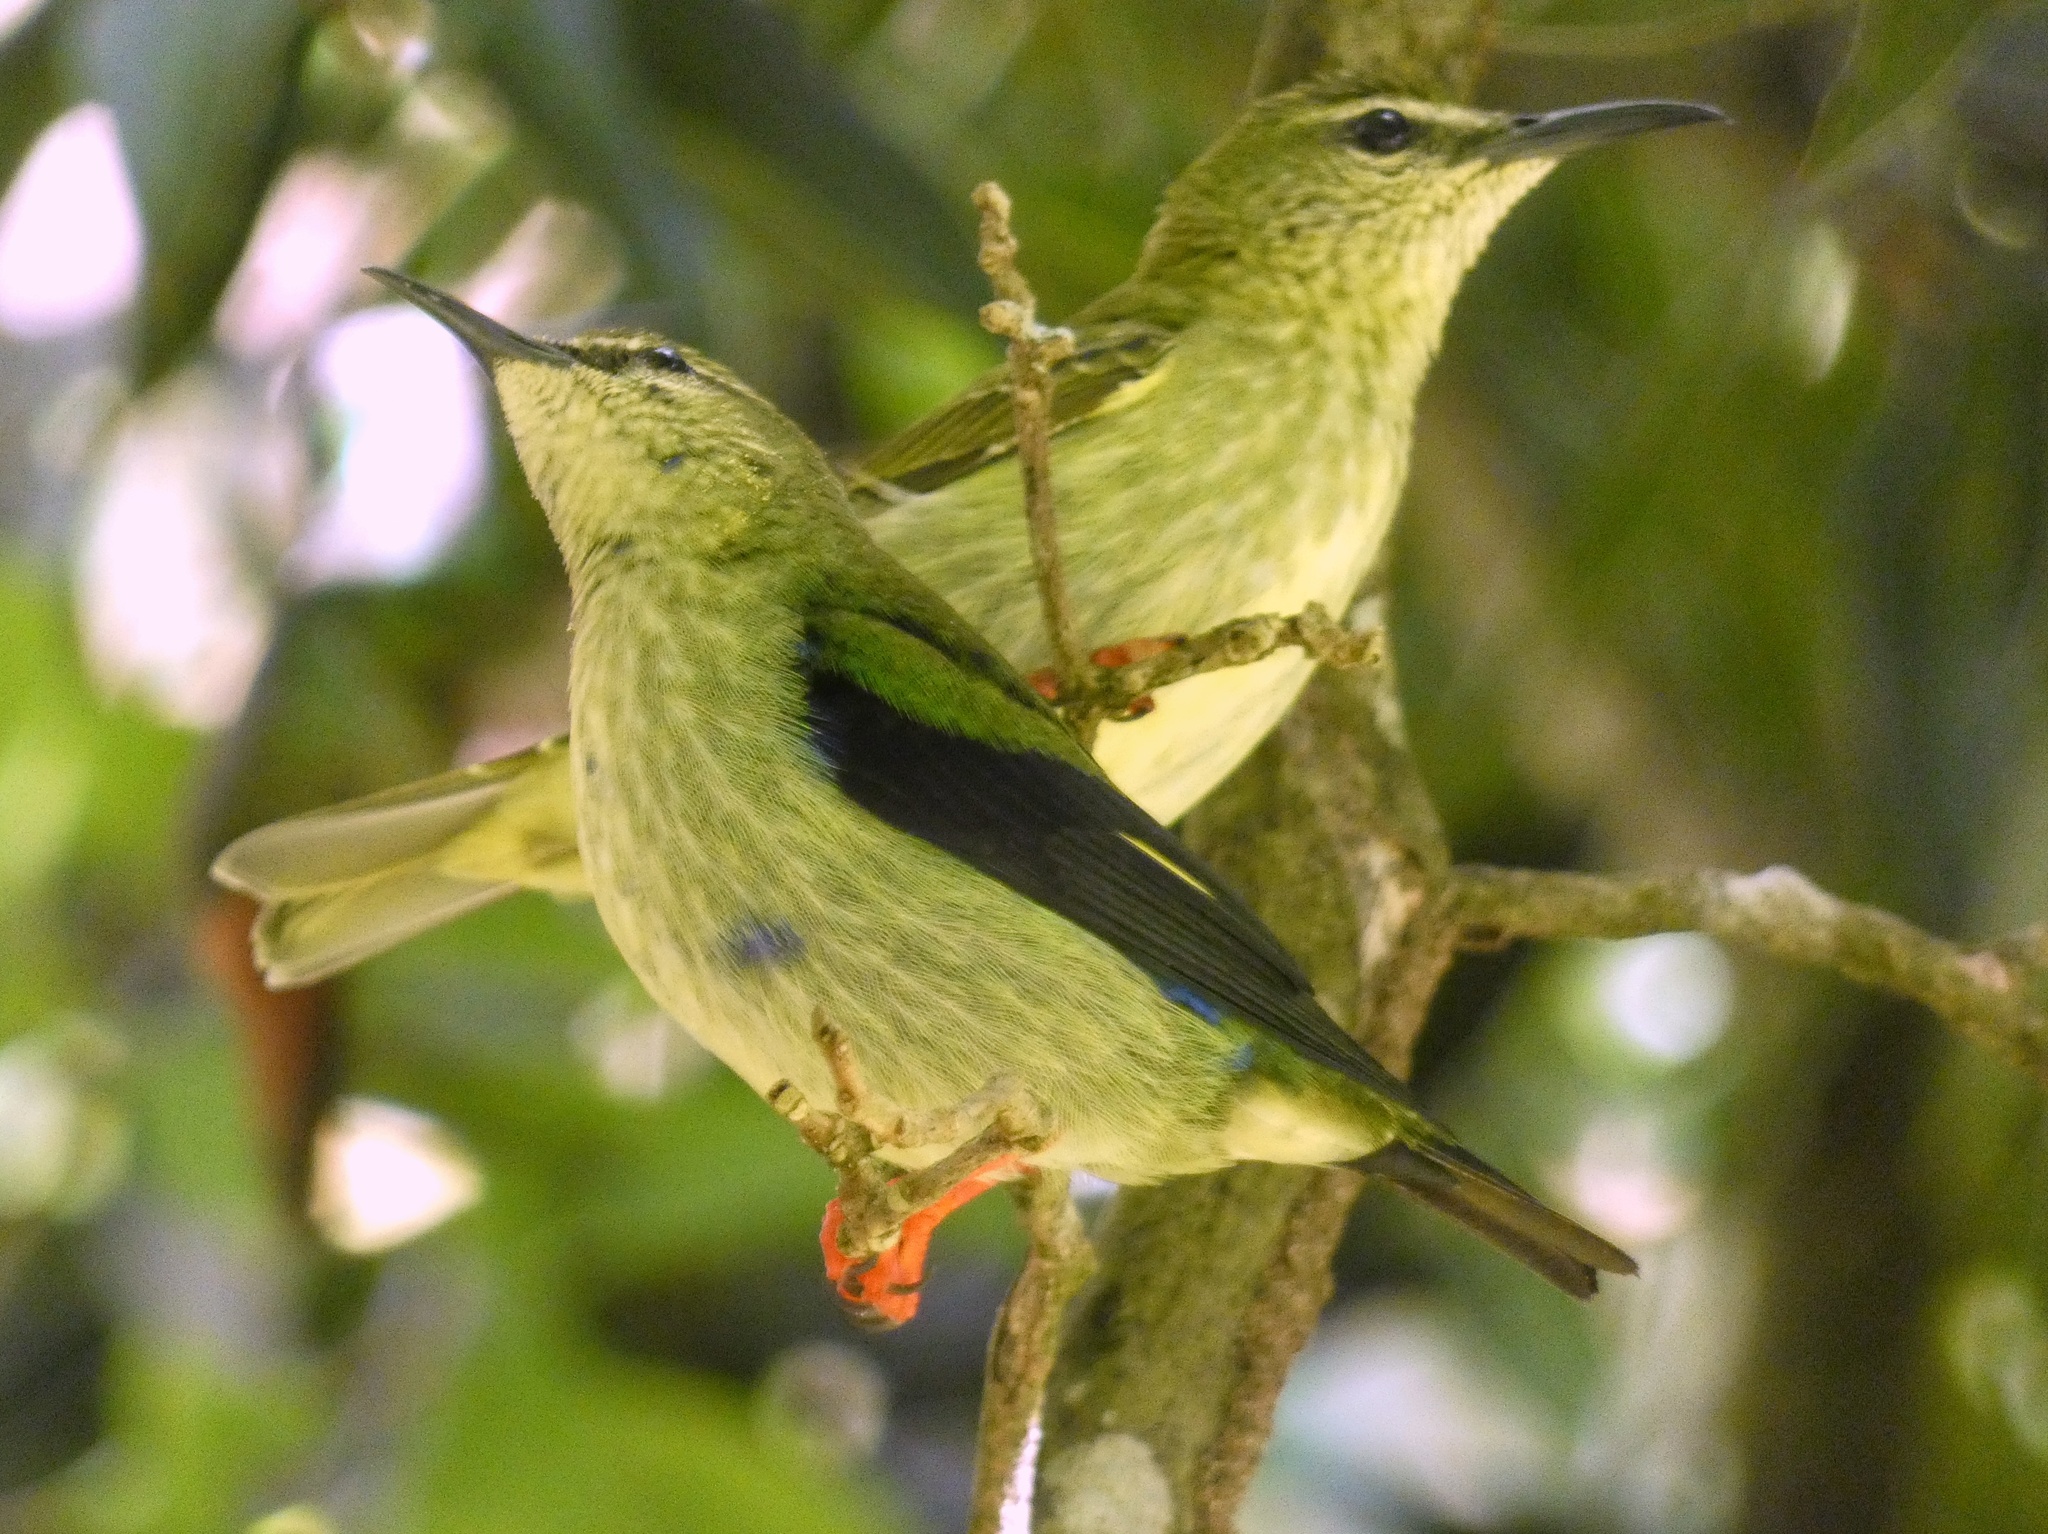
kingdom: Animalia
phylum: Chordata
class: Aves
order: Passeriformes
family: Thraupidae
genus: Cyanerpes
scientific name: Cyanerpes cyaneus
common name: Red-legged honeycreeper
